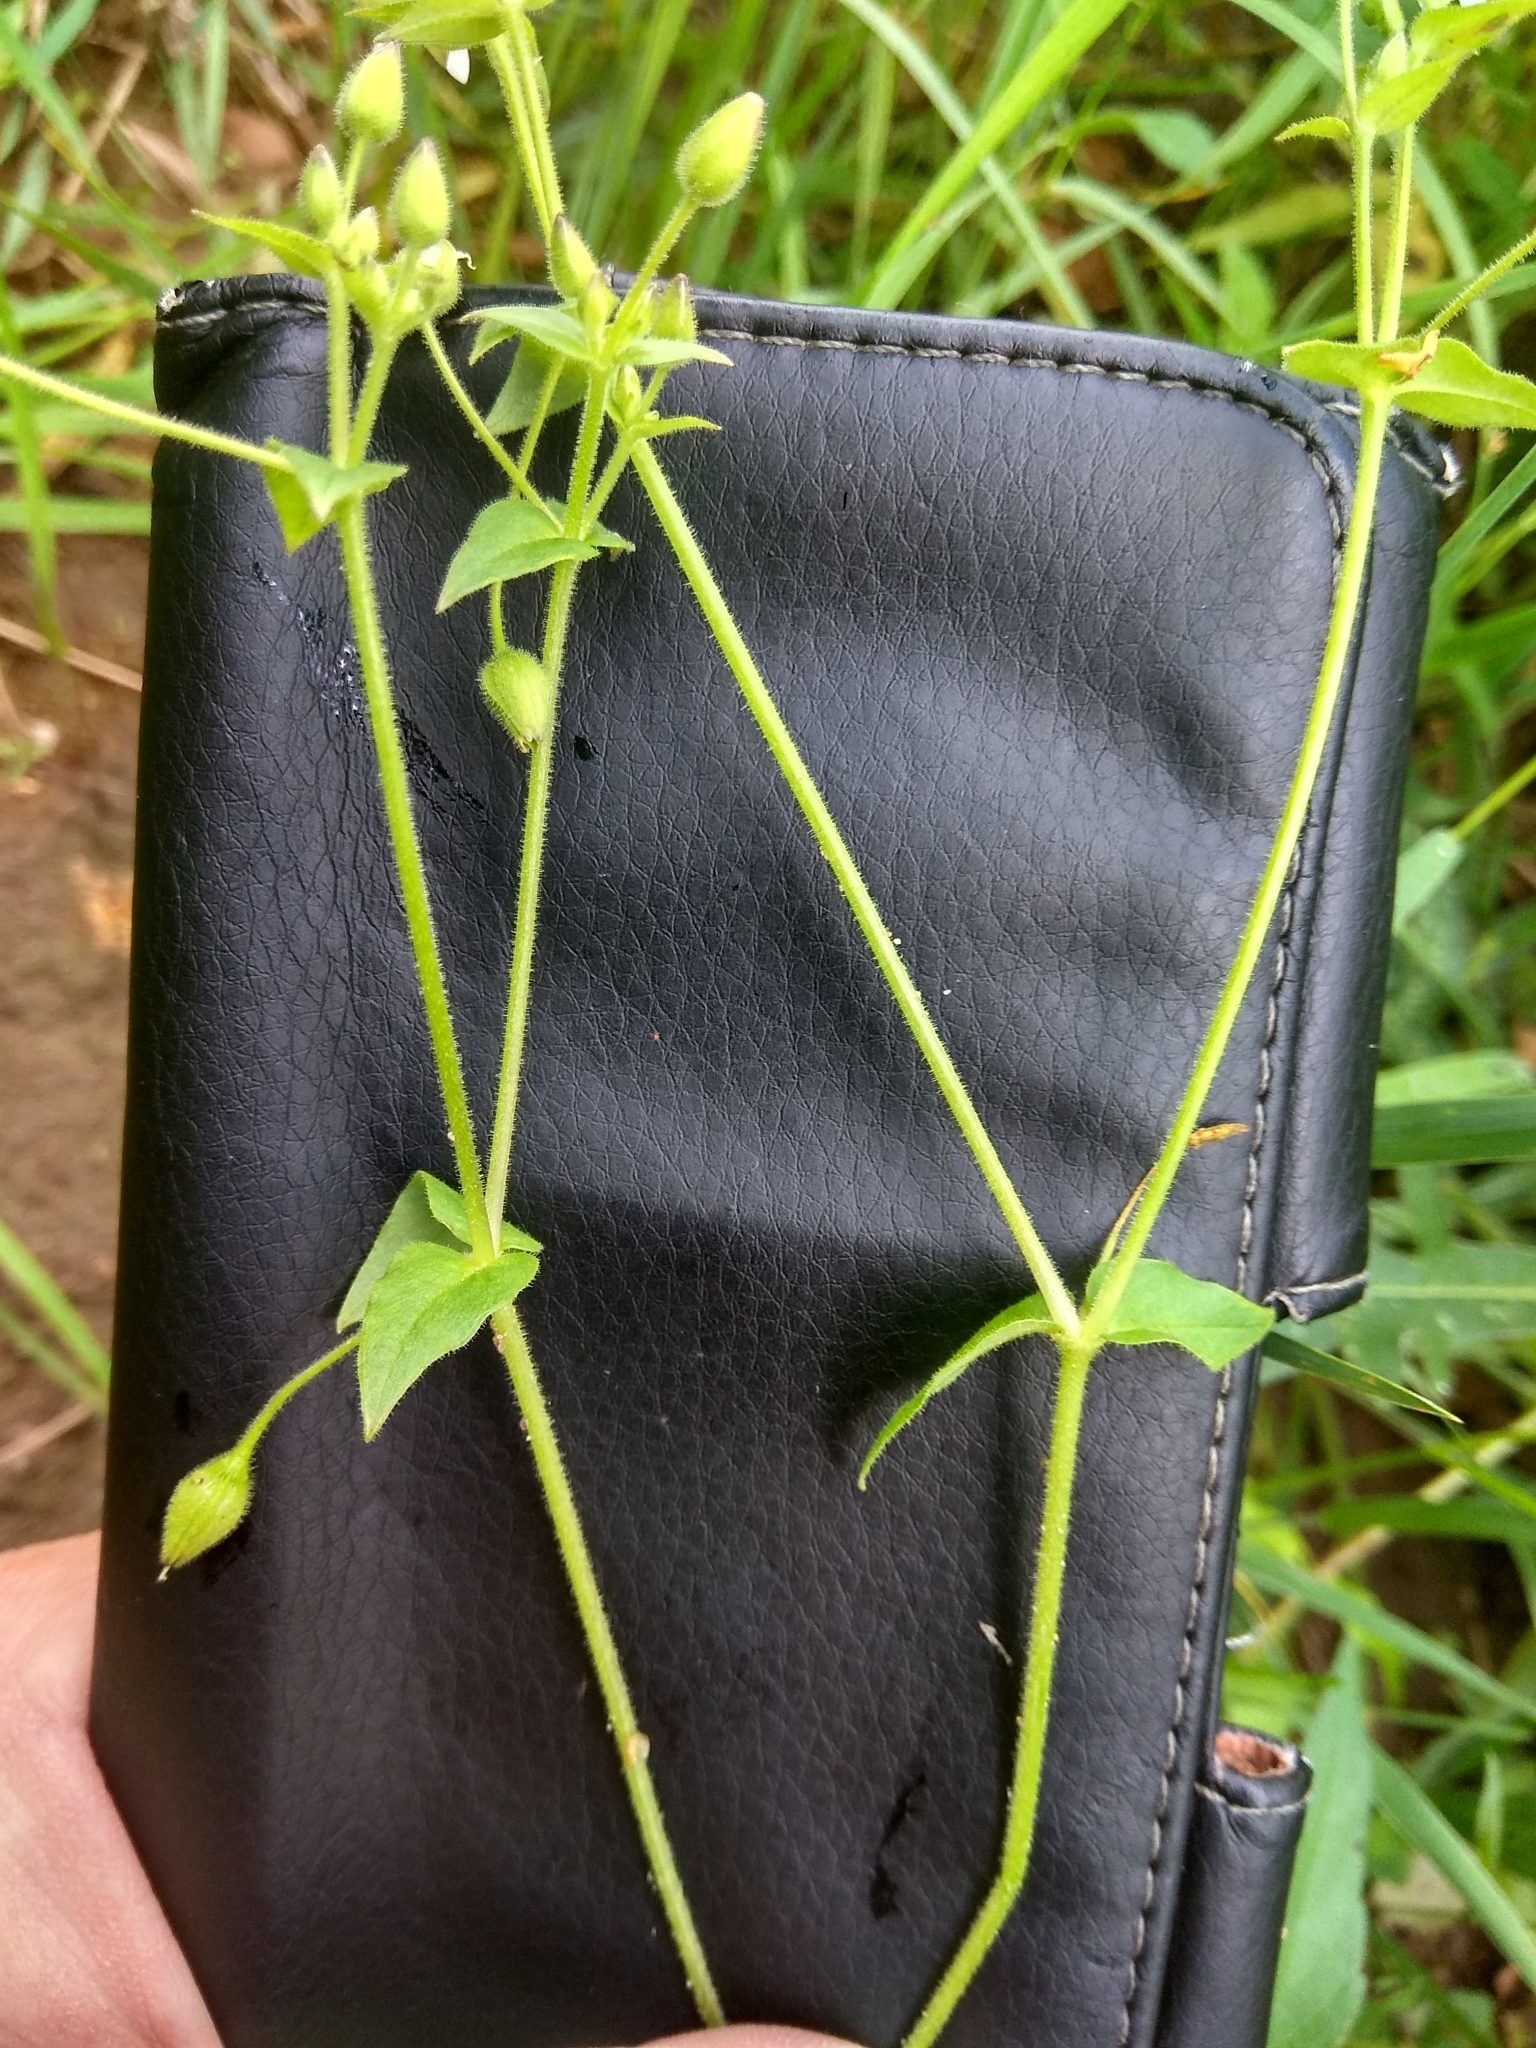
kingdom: Plantae
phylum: Tracheophyta
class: Magnoliopsida
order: Caryophyllales
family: Caryophyllaceae
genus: Stellaria
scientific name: Stellaria aquatica
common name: Water chickweed
